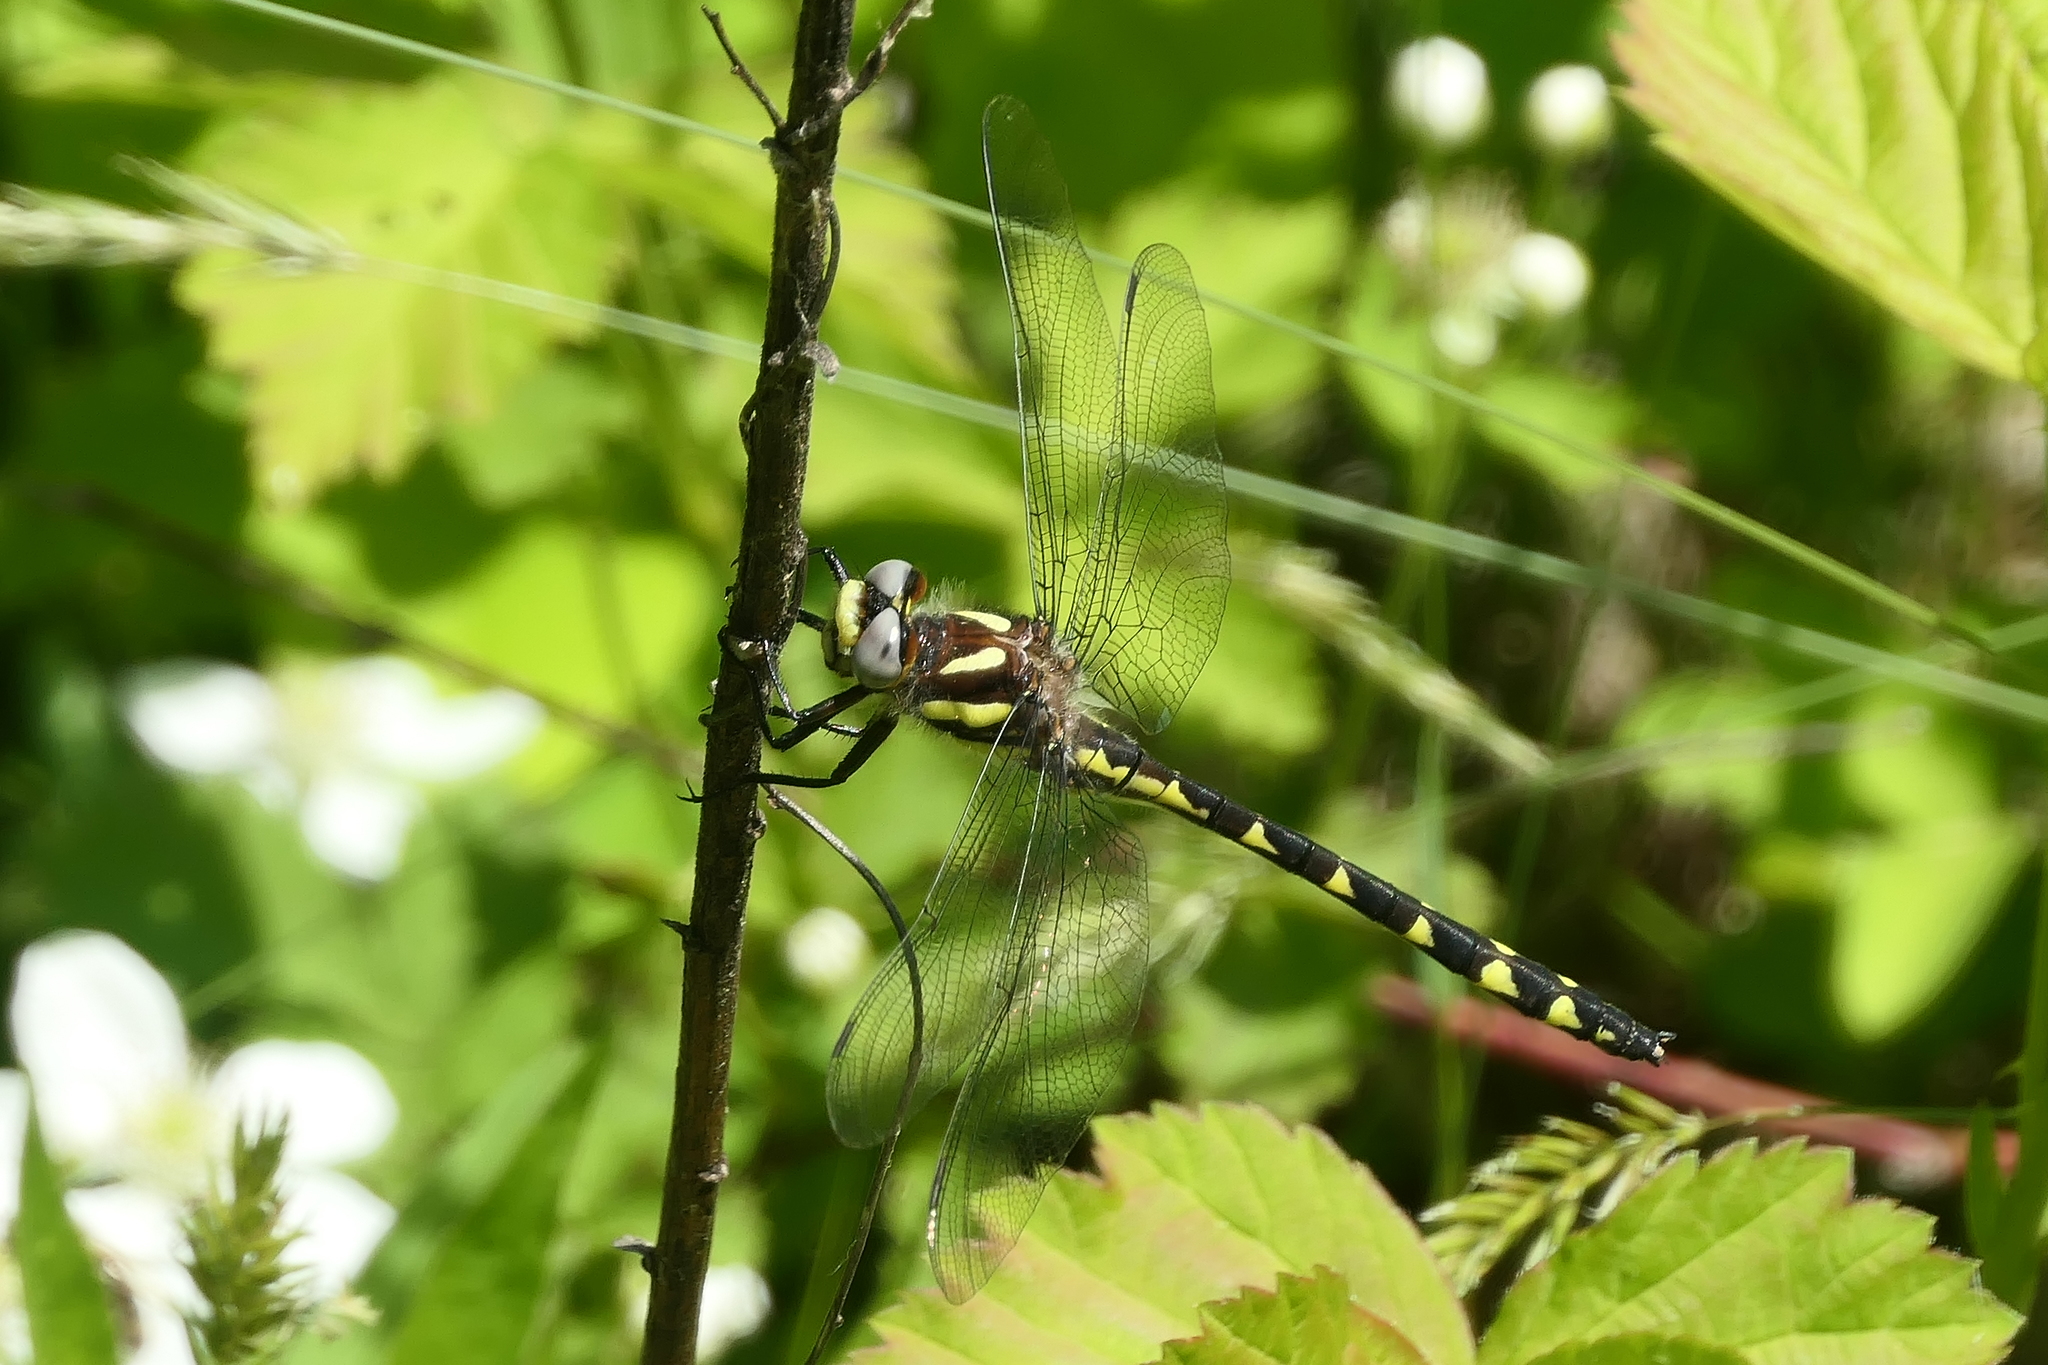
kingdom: Animalia
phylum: Arthropoda
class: Insecta
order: Odonata
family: Cordulegastridae
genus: Cordulegaster
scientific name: Cordulegaster diastatops
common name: Delta-spotted spiketail
